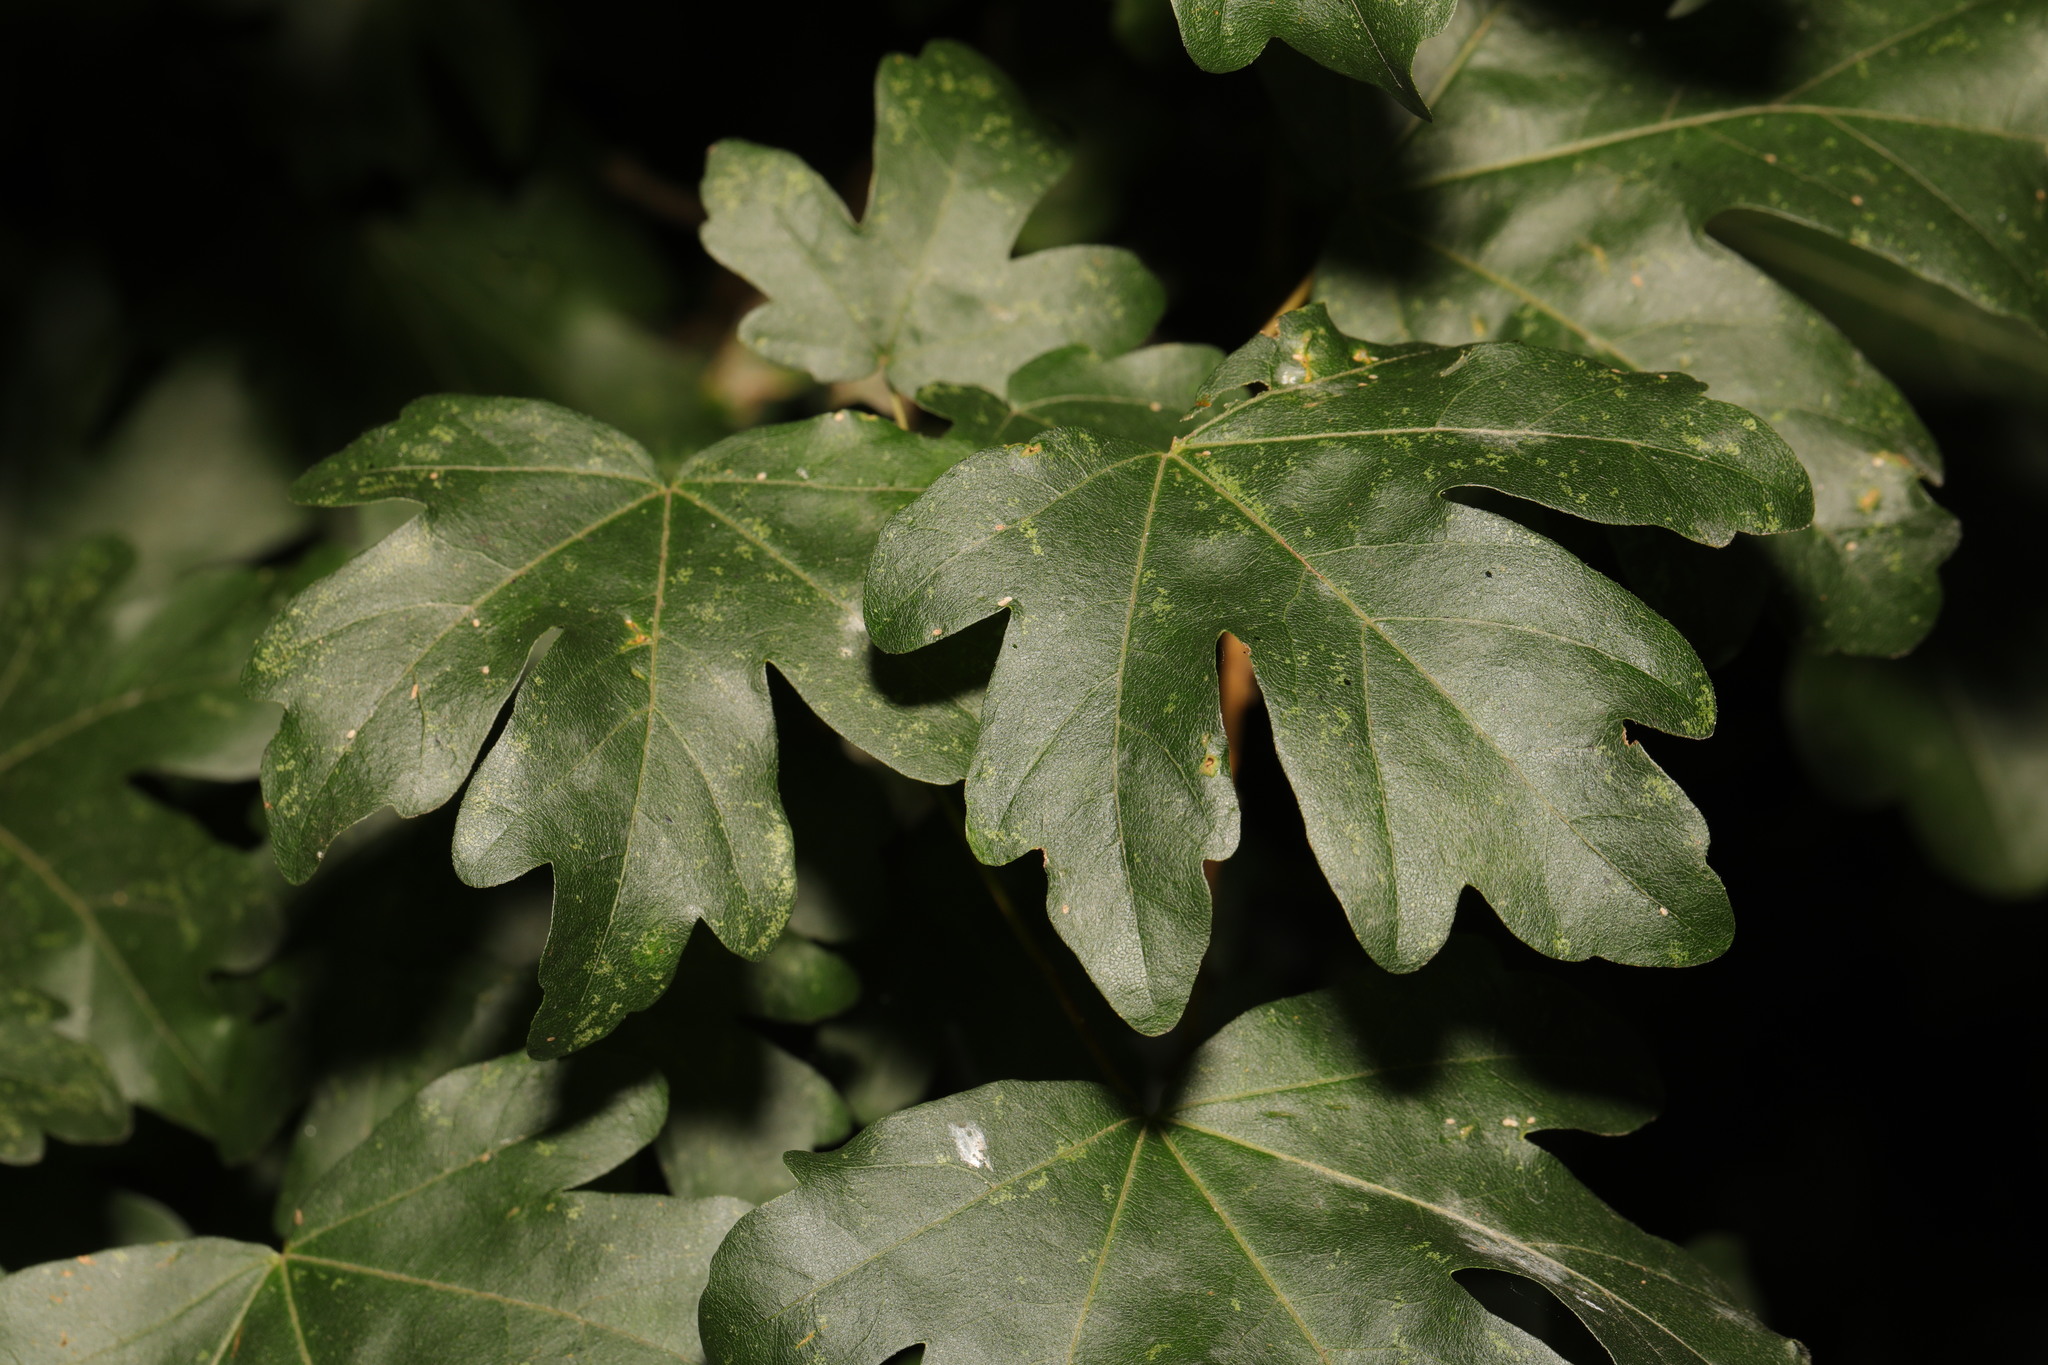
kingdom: Plantae
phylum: Tracheophyta
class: Magnoliopsida
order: Sapindales
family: Sapindaceae
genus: Acer
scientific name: Acer campestre
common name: Field maple
